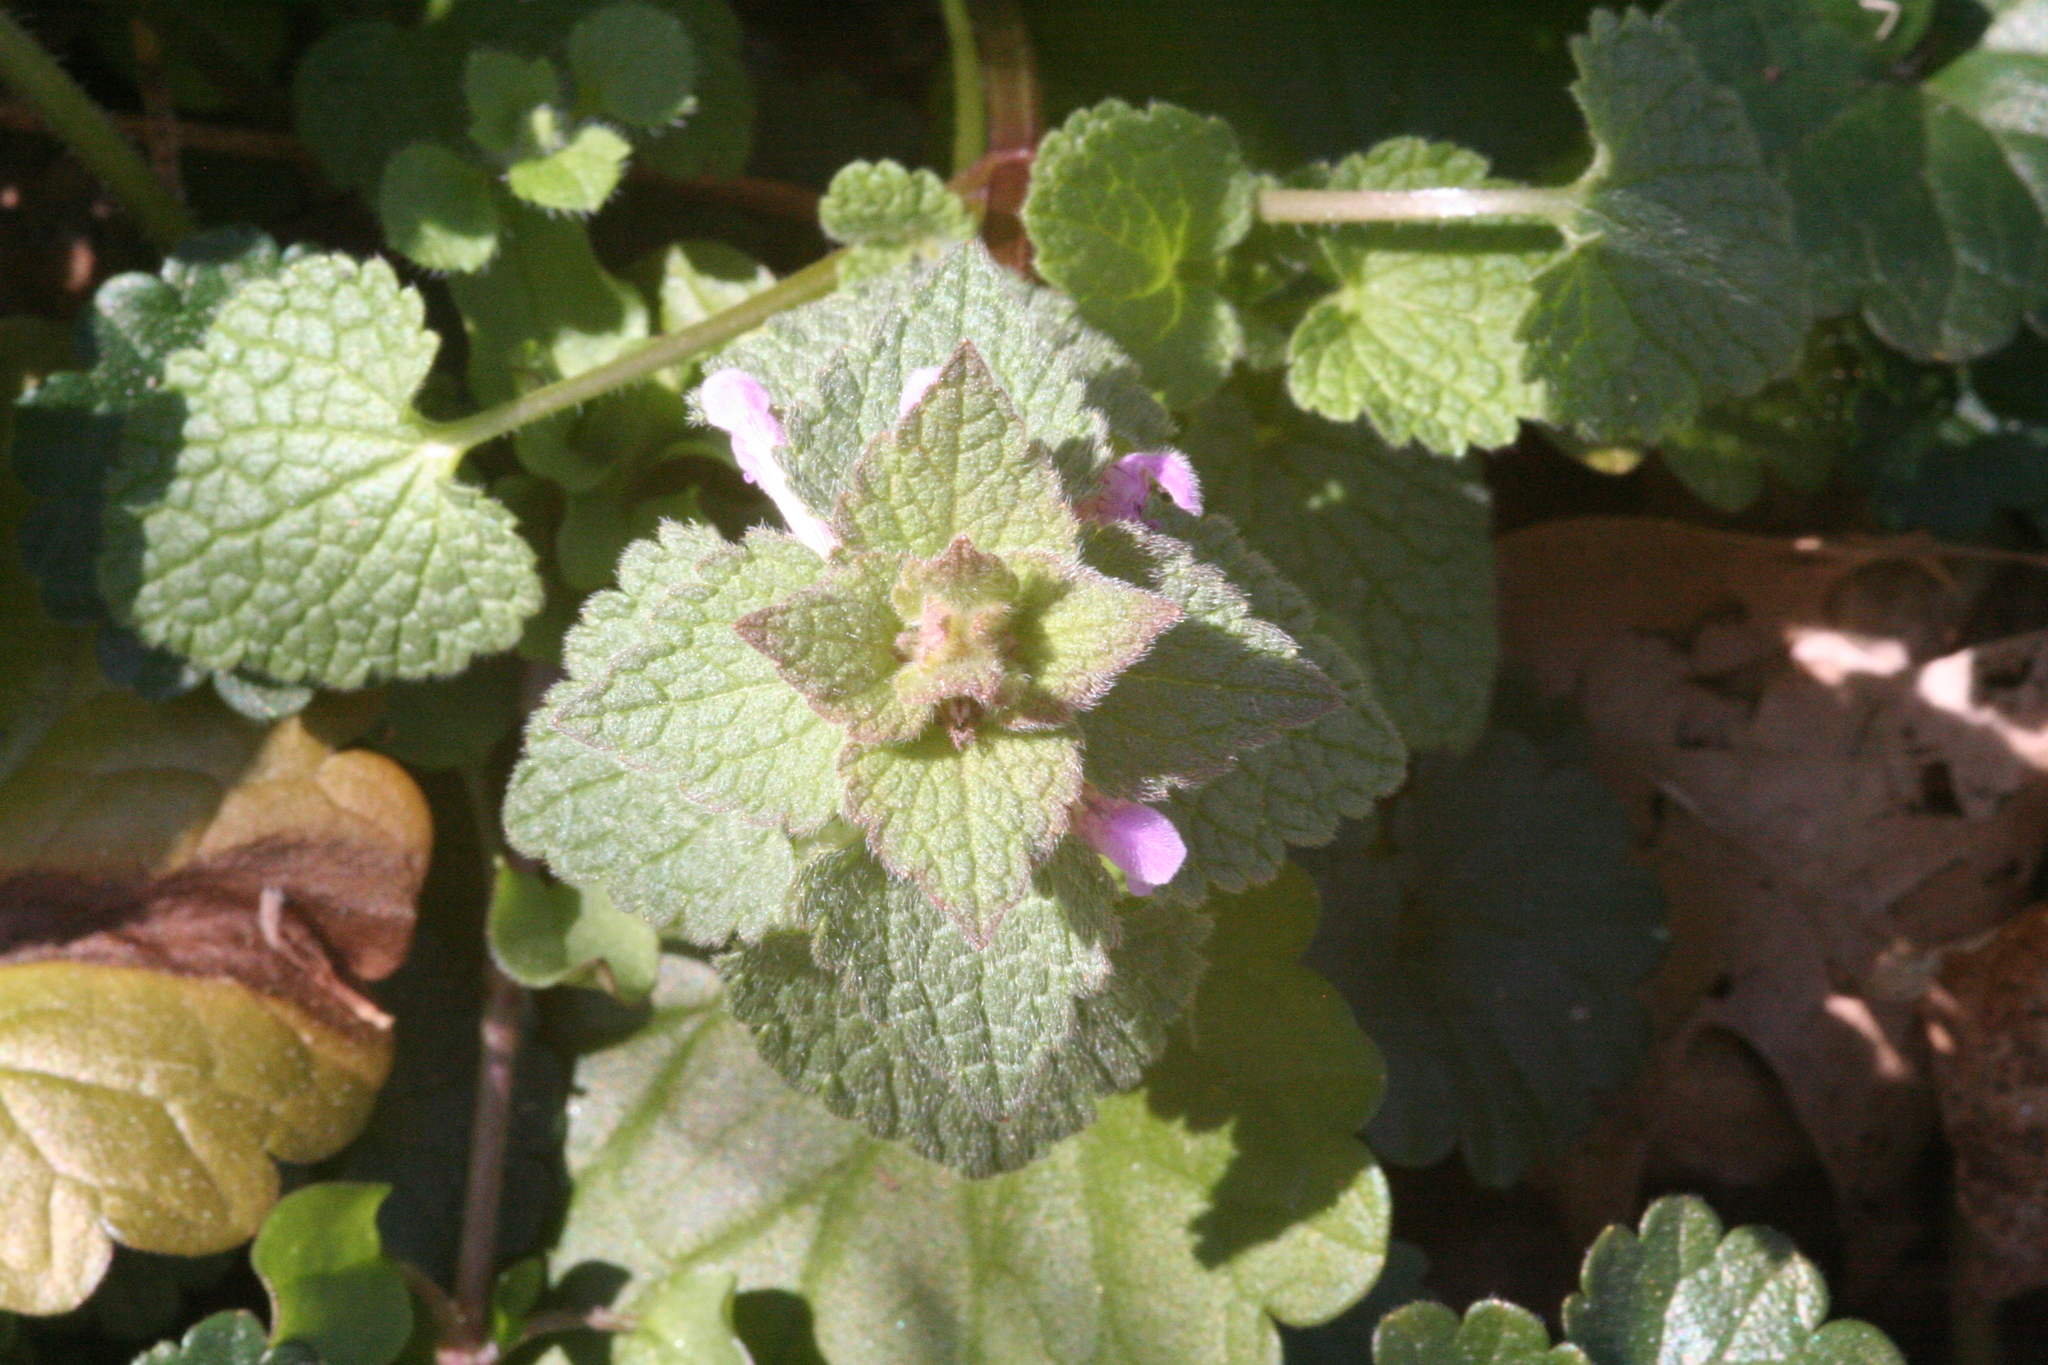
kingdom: Plantae
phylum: Tracheophyta
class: Magnoliopsida
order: Lamiales
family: Lamiaceae
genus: Lamium
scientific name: Lamium purpureum
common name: Red dead-nettle
